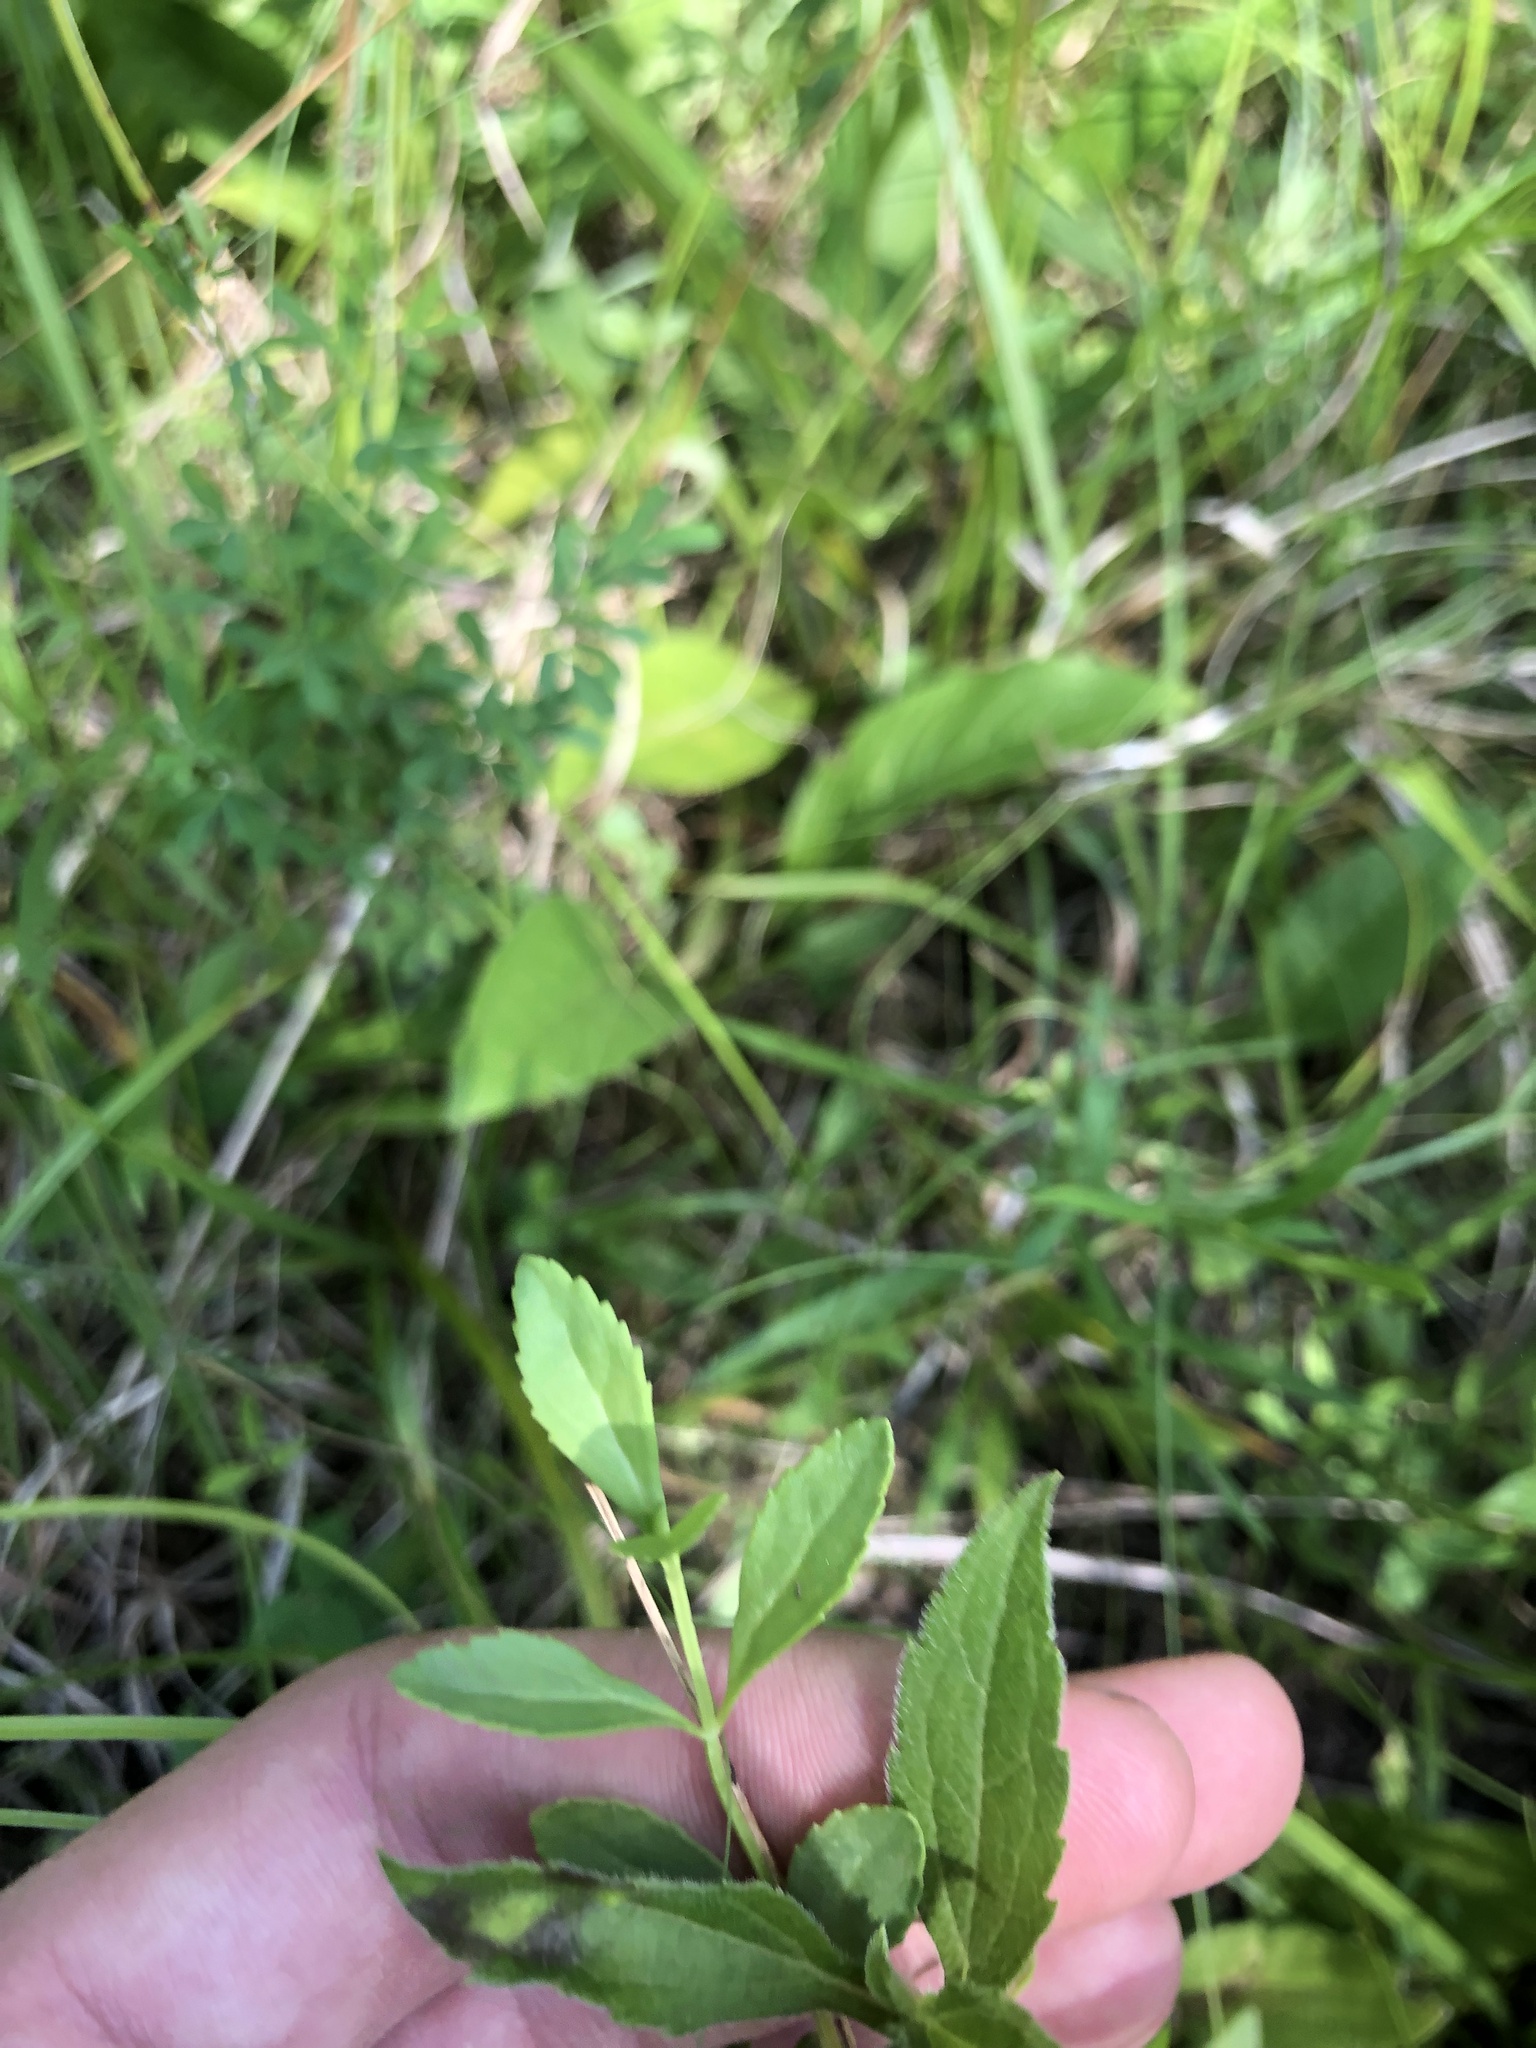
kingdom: Plantae
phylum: Tracheophyta
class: Magnoliopsida
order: Lamiales
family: Plantaginaceae
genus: Mecardonia
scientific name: Mecardonia acuminata
